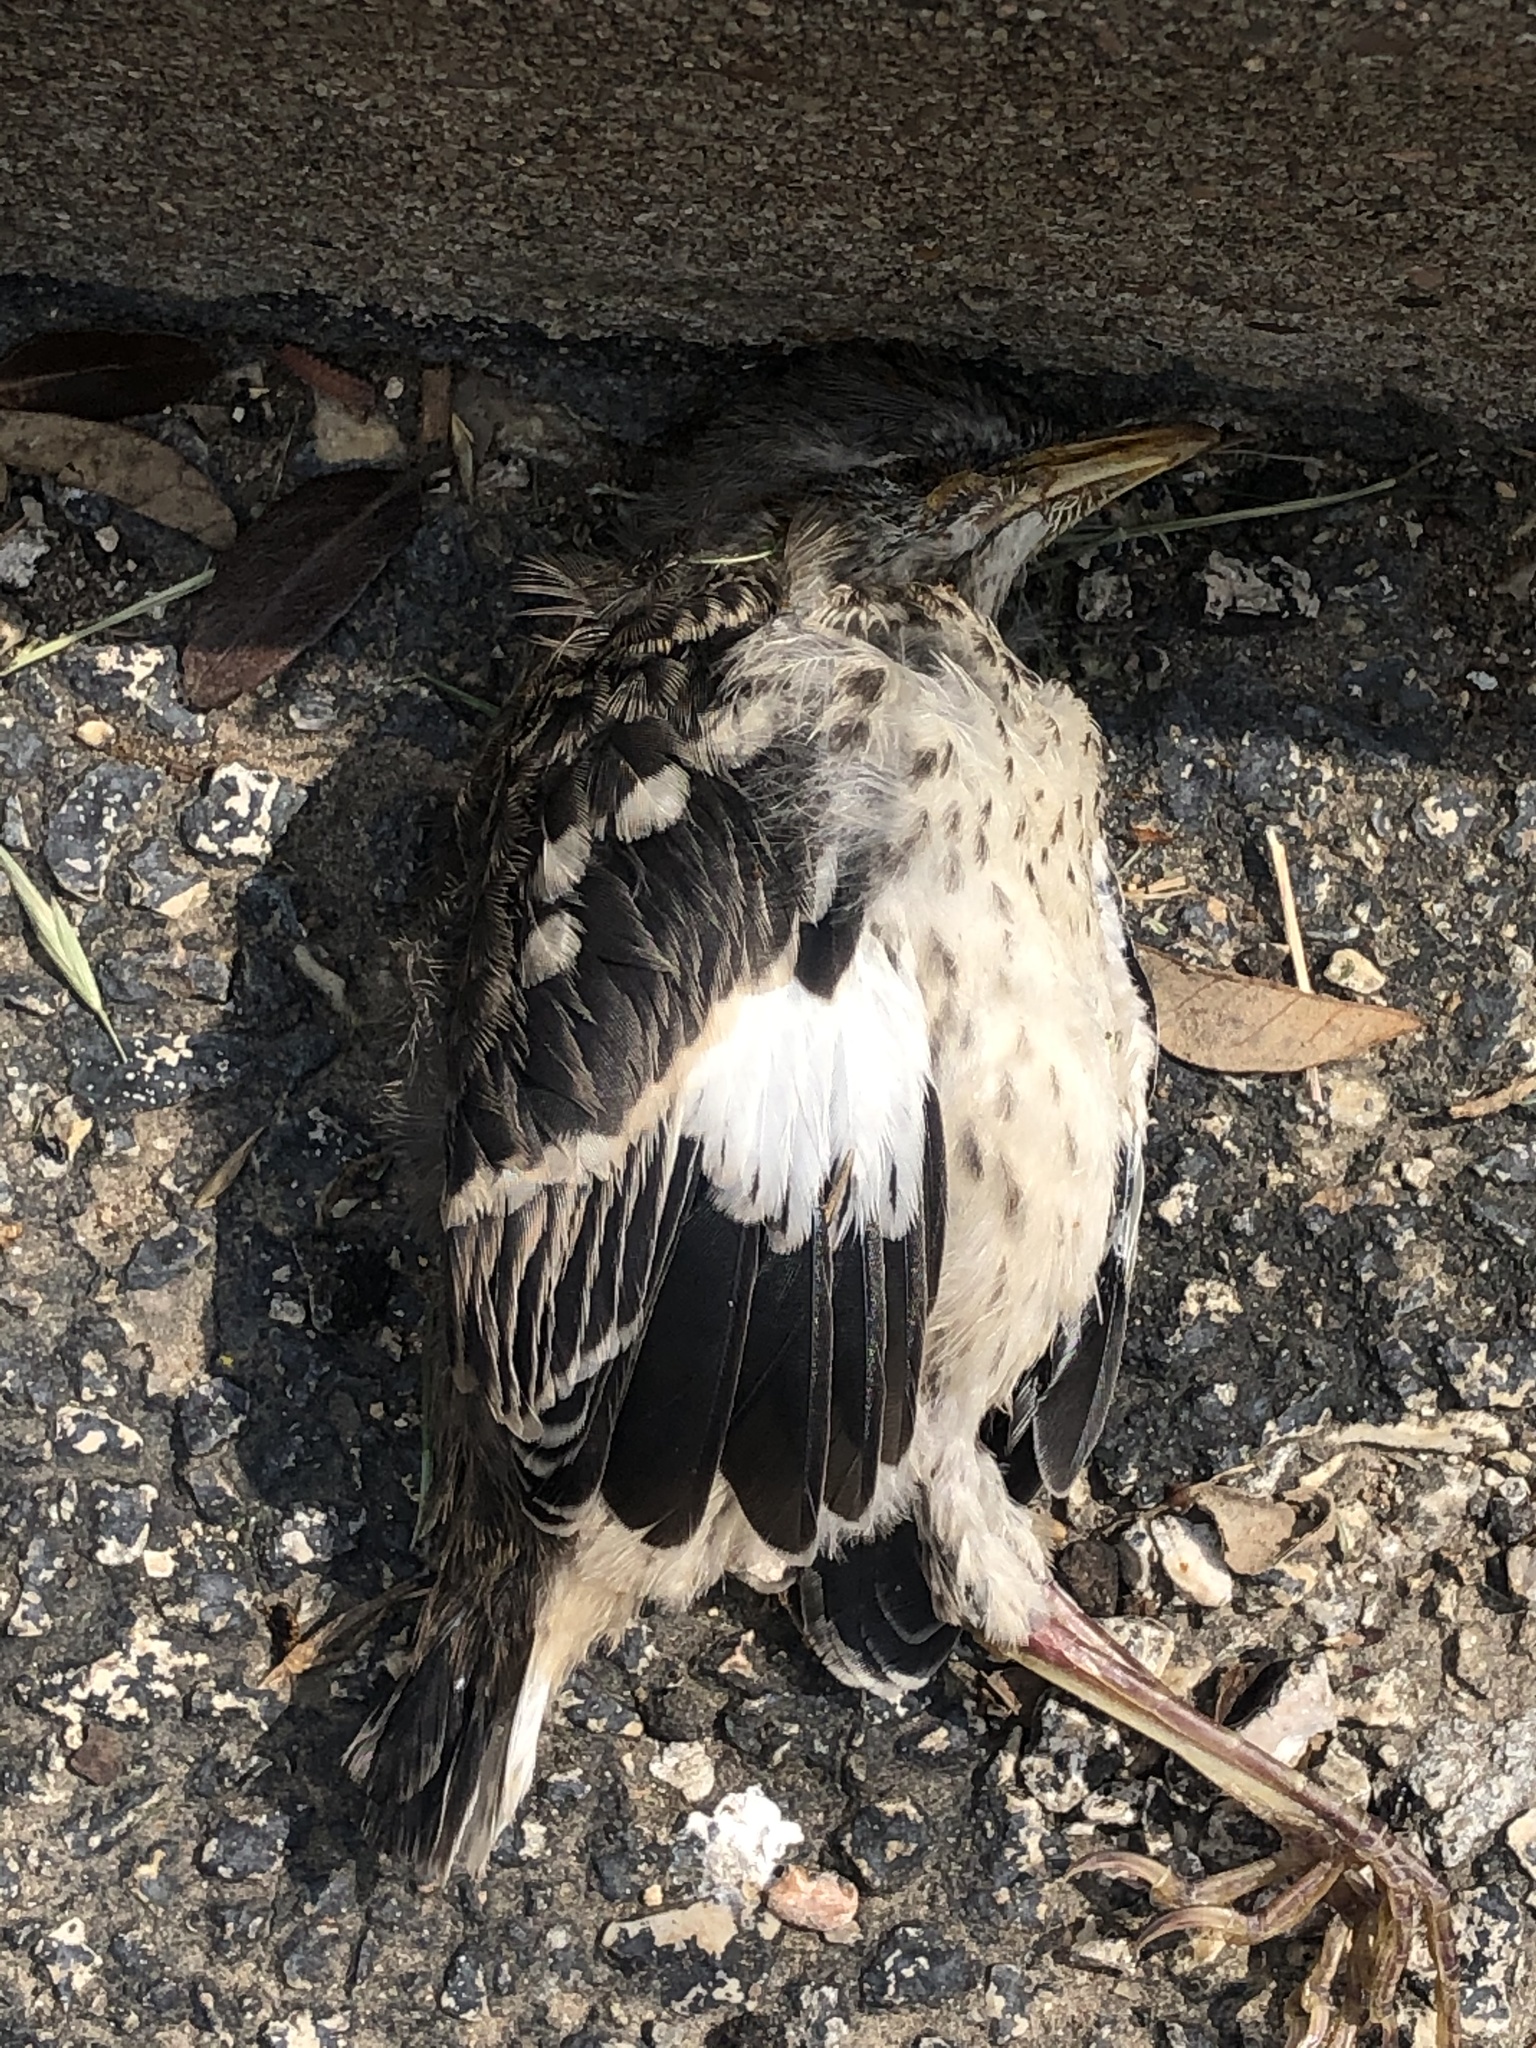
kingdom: Animalia
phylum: Chordata
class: Aves
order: Passeriformes
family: Mimidae
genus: Mimus
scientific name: Mimus polyglottos
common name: Northern mockingbird
